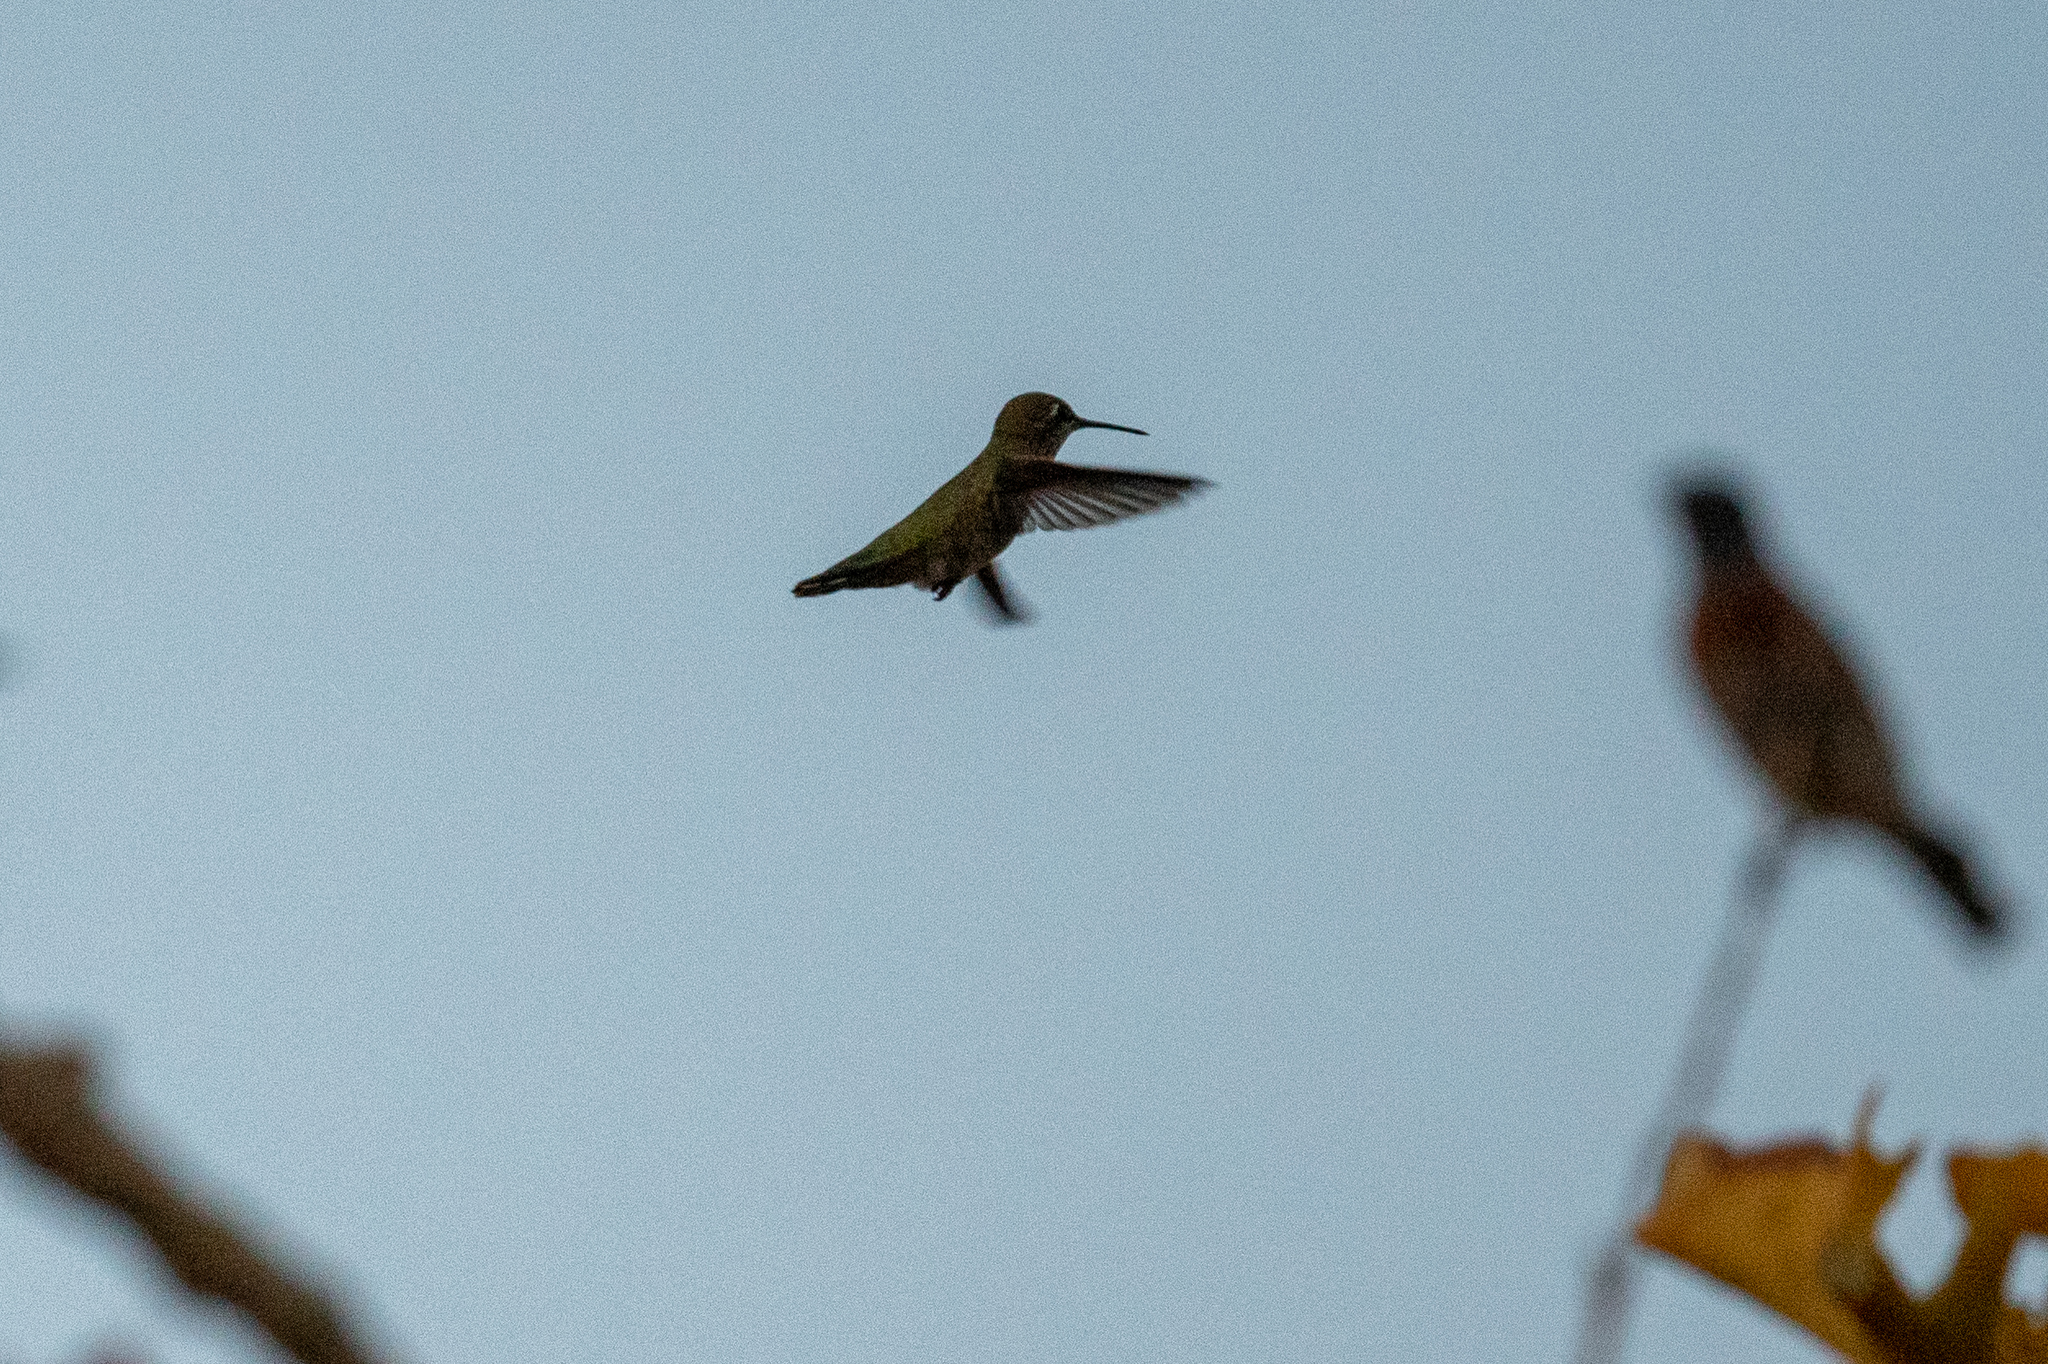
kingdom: Animalia
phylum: Chordata
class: Aves
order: Apodiformes
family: Trochilidae
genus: Calypte
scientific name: Calypte anna
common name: Anna's hummingbird
